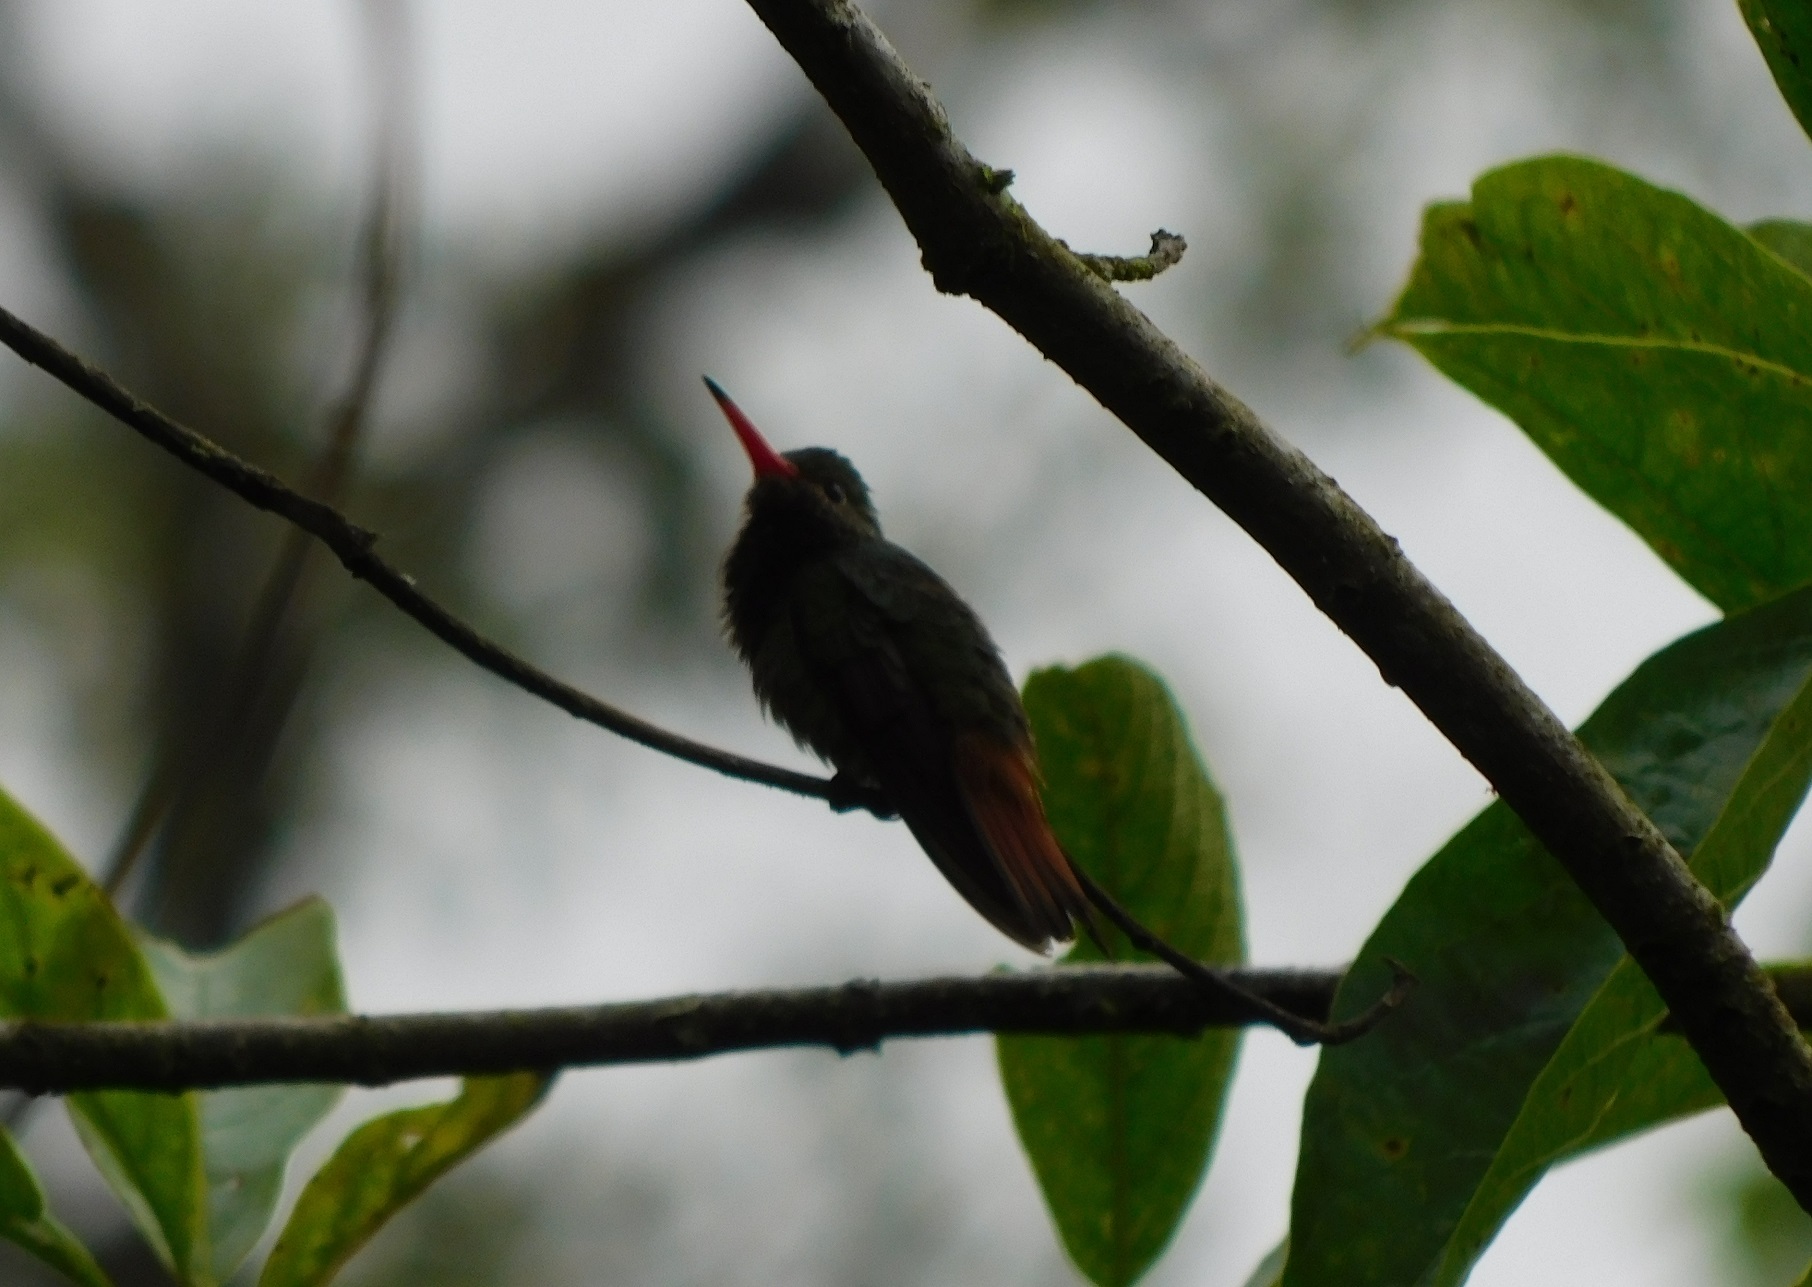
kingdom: Animalia
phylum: Chordata
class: Aves
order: Apodiformes
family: Trochilidae
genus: Amazilia
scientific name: Amazilia tzacatl
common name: Rufous-tailed hummingbird
